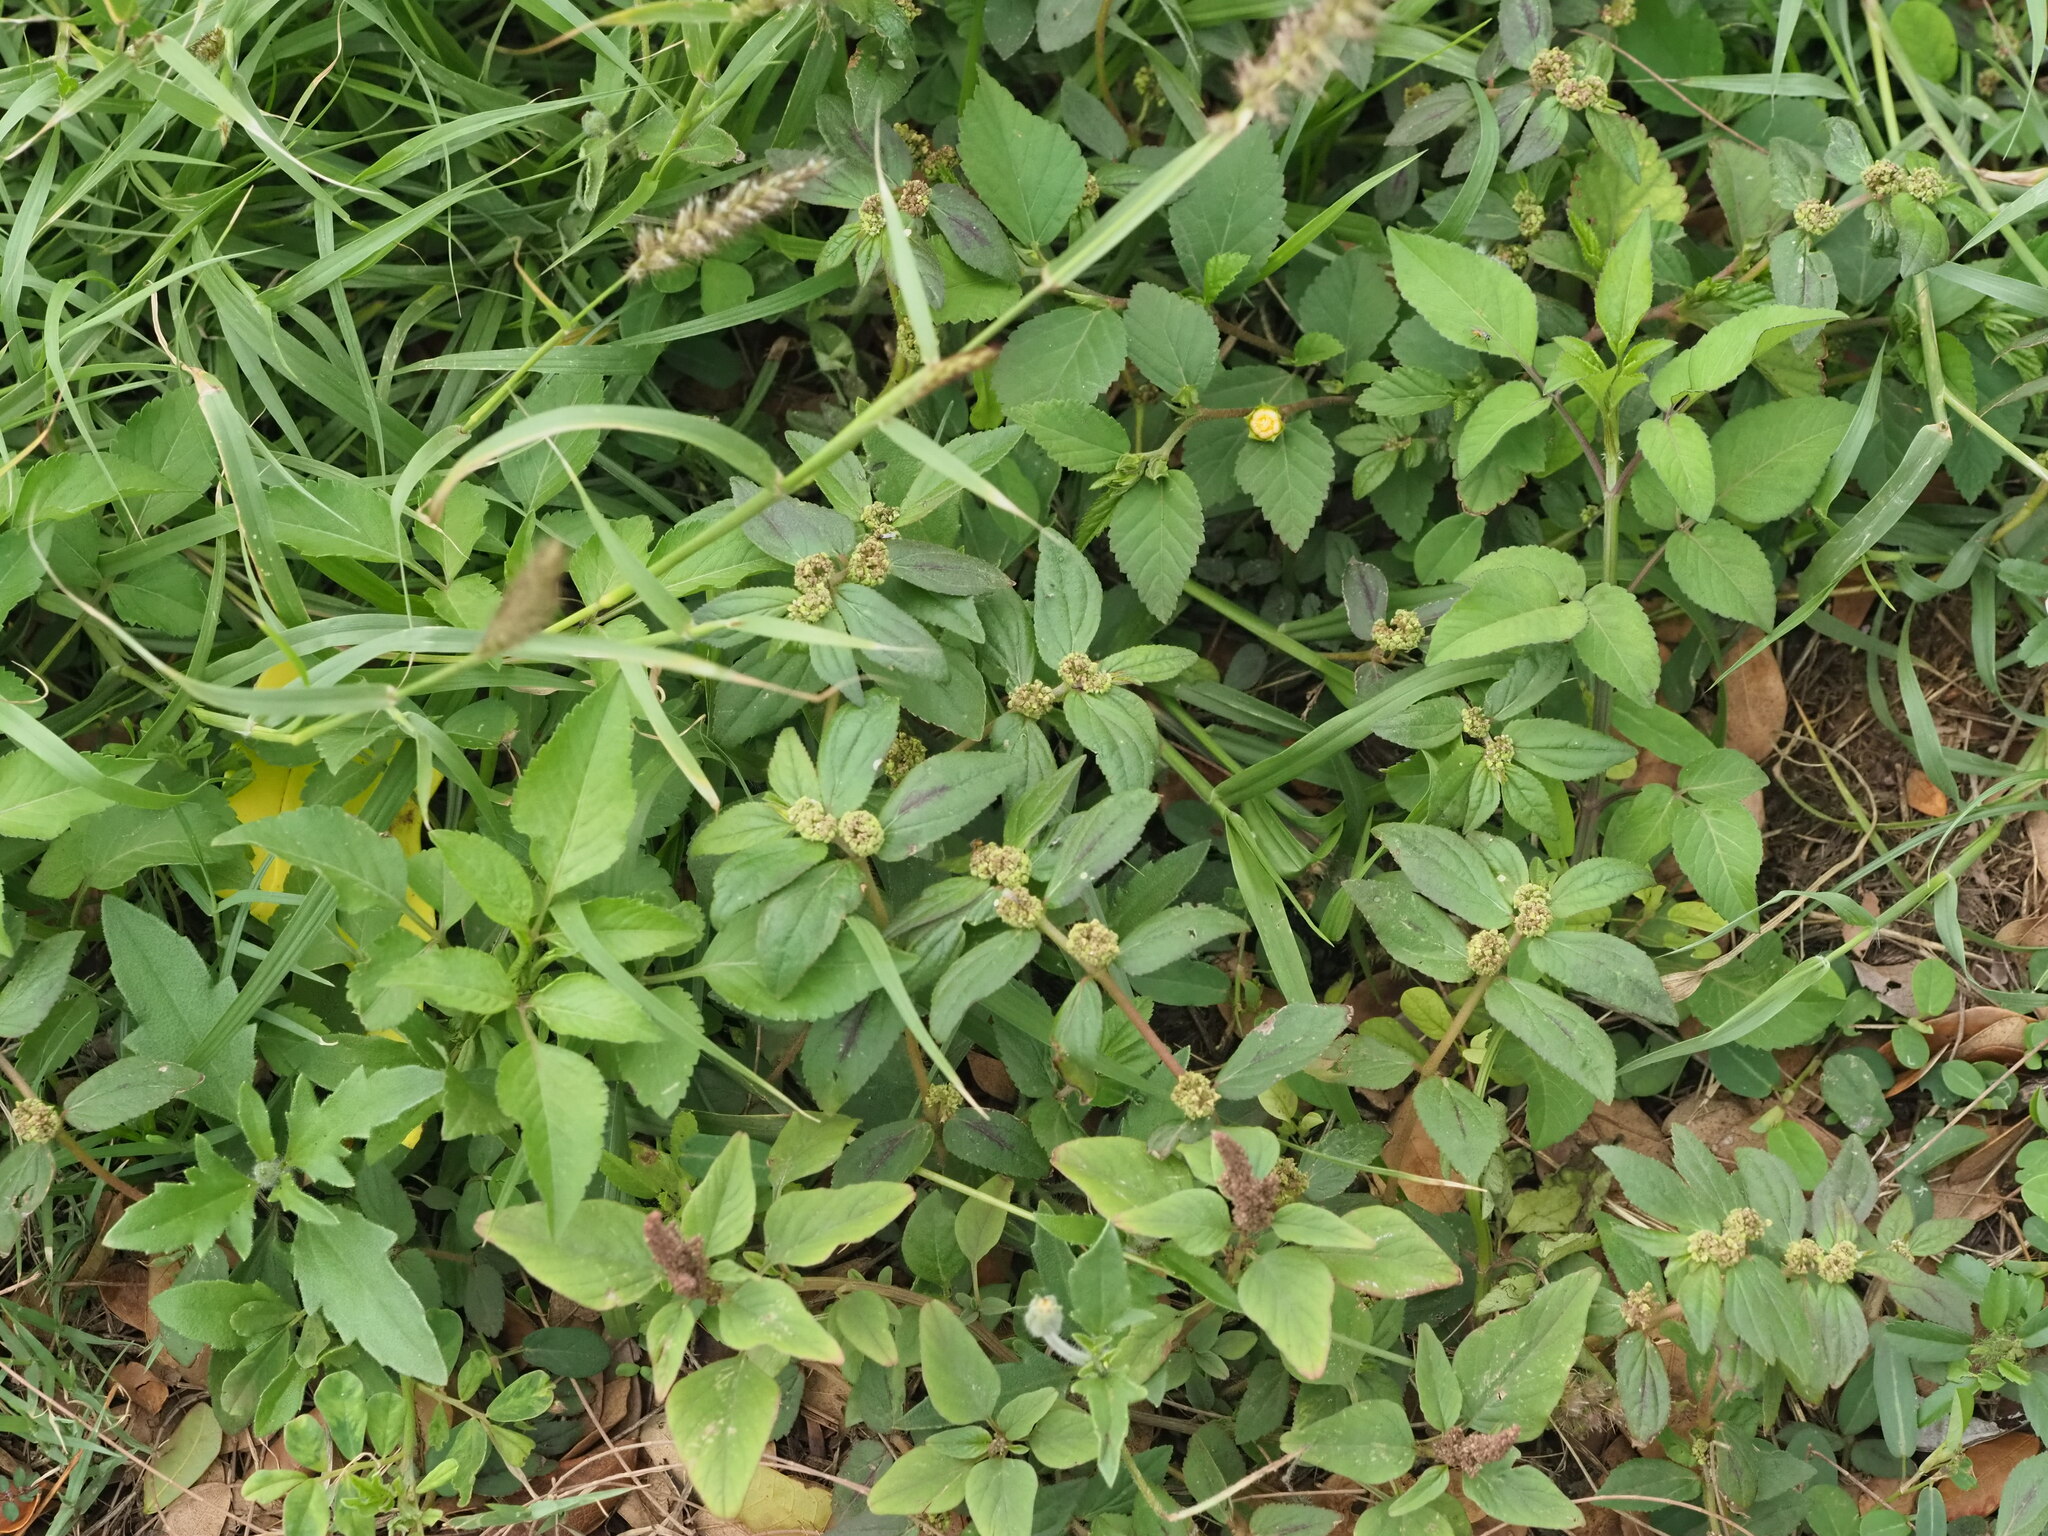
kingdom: Plantae
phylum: Tracheophyta
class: Magnoliopsida
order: Malpighiales
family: Euphorbiaceae
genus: Euphorbia
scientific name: Euphorbia hirta
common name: Pillpod sandmat
